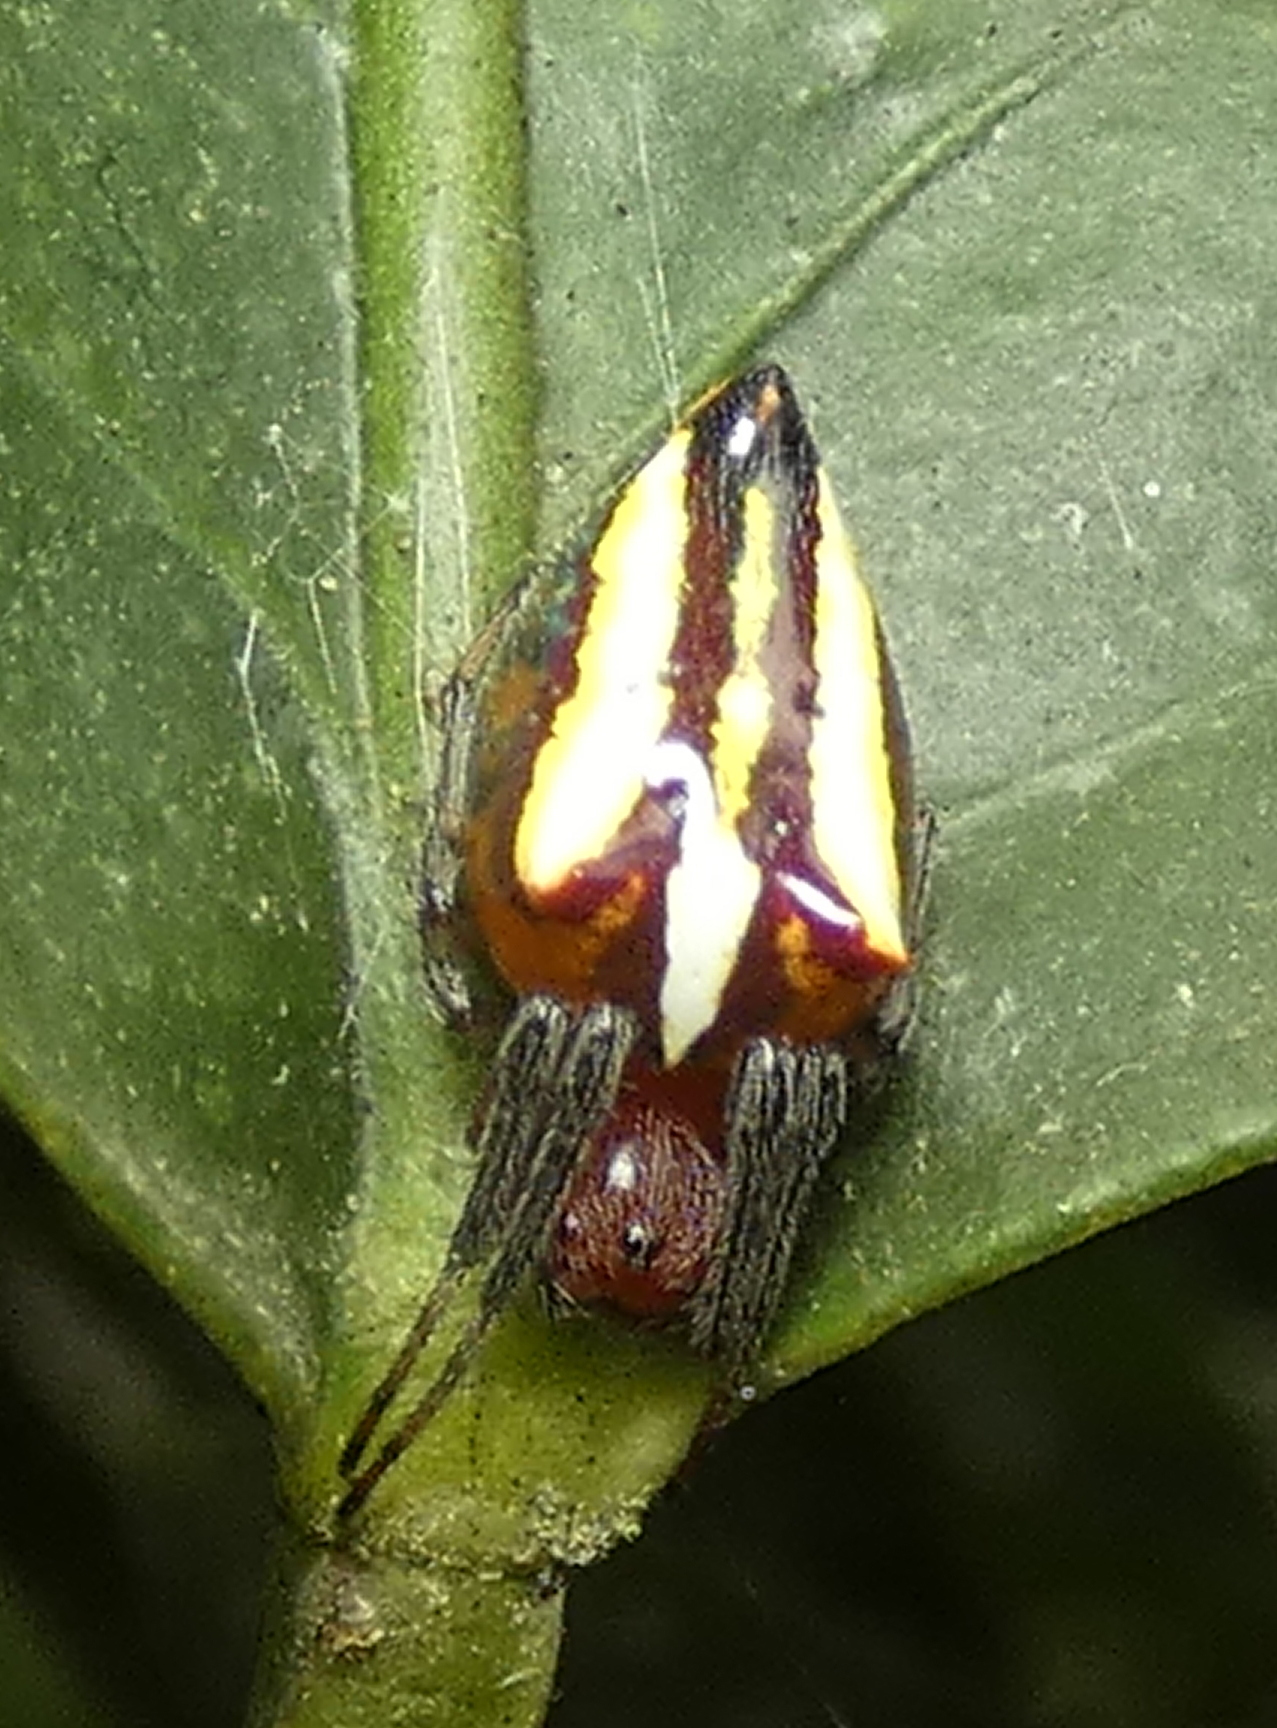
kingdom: Animalia
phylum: Arthropoda
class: Arachnida
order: Araneae
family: Araneidae
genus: Alpaida
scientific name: Alpaida bicornuta
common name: Orb weavers
